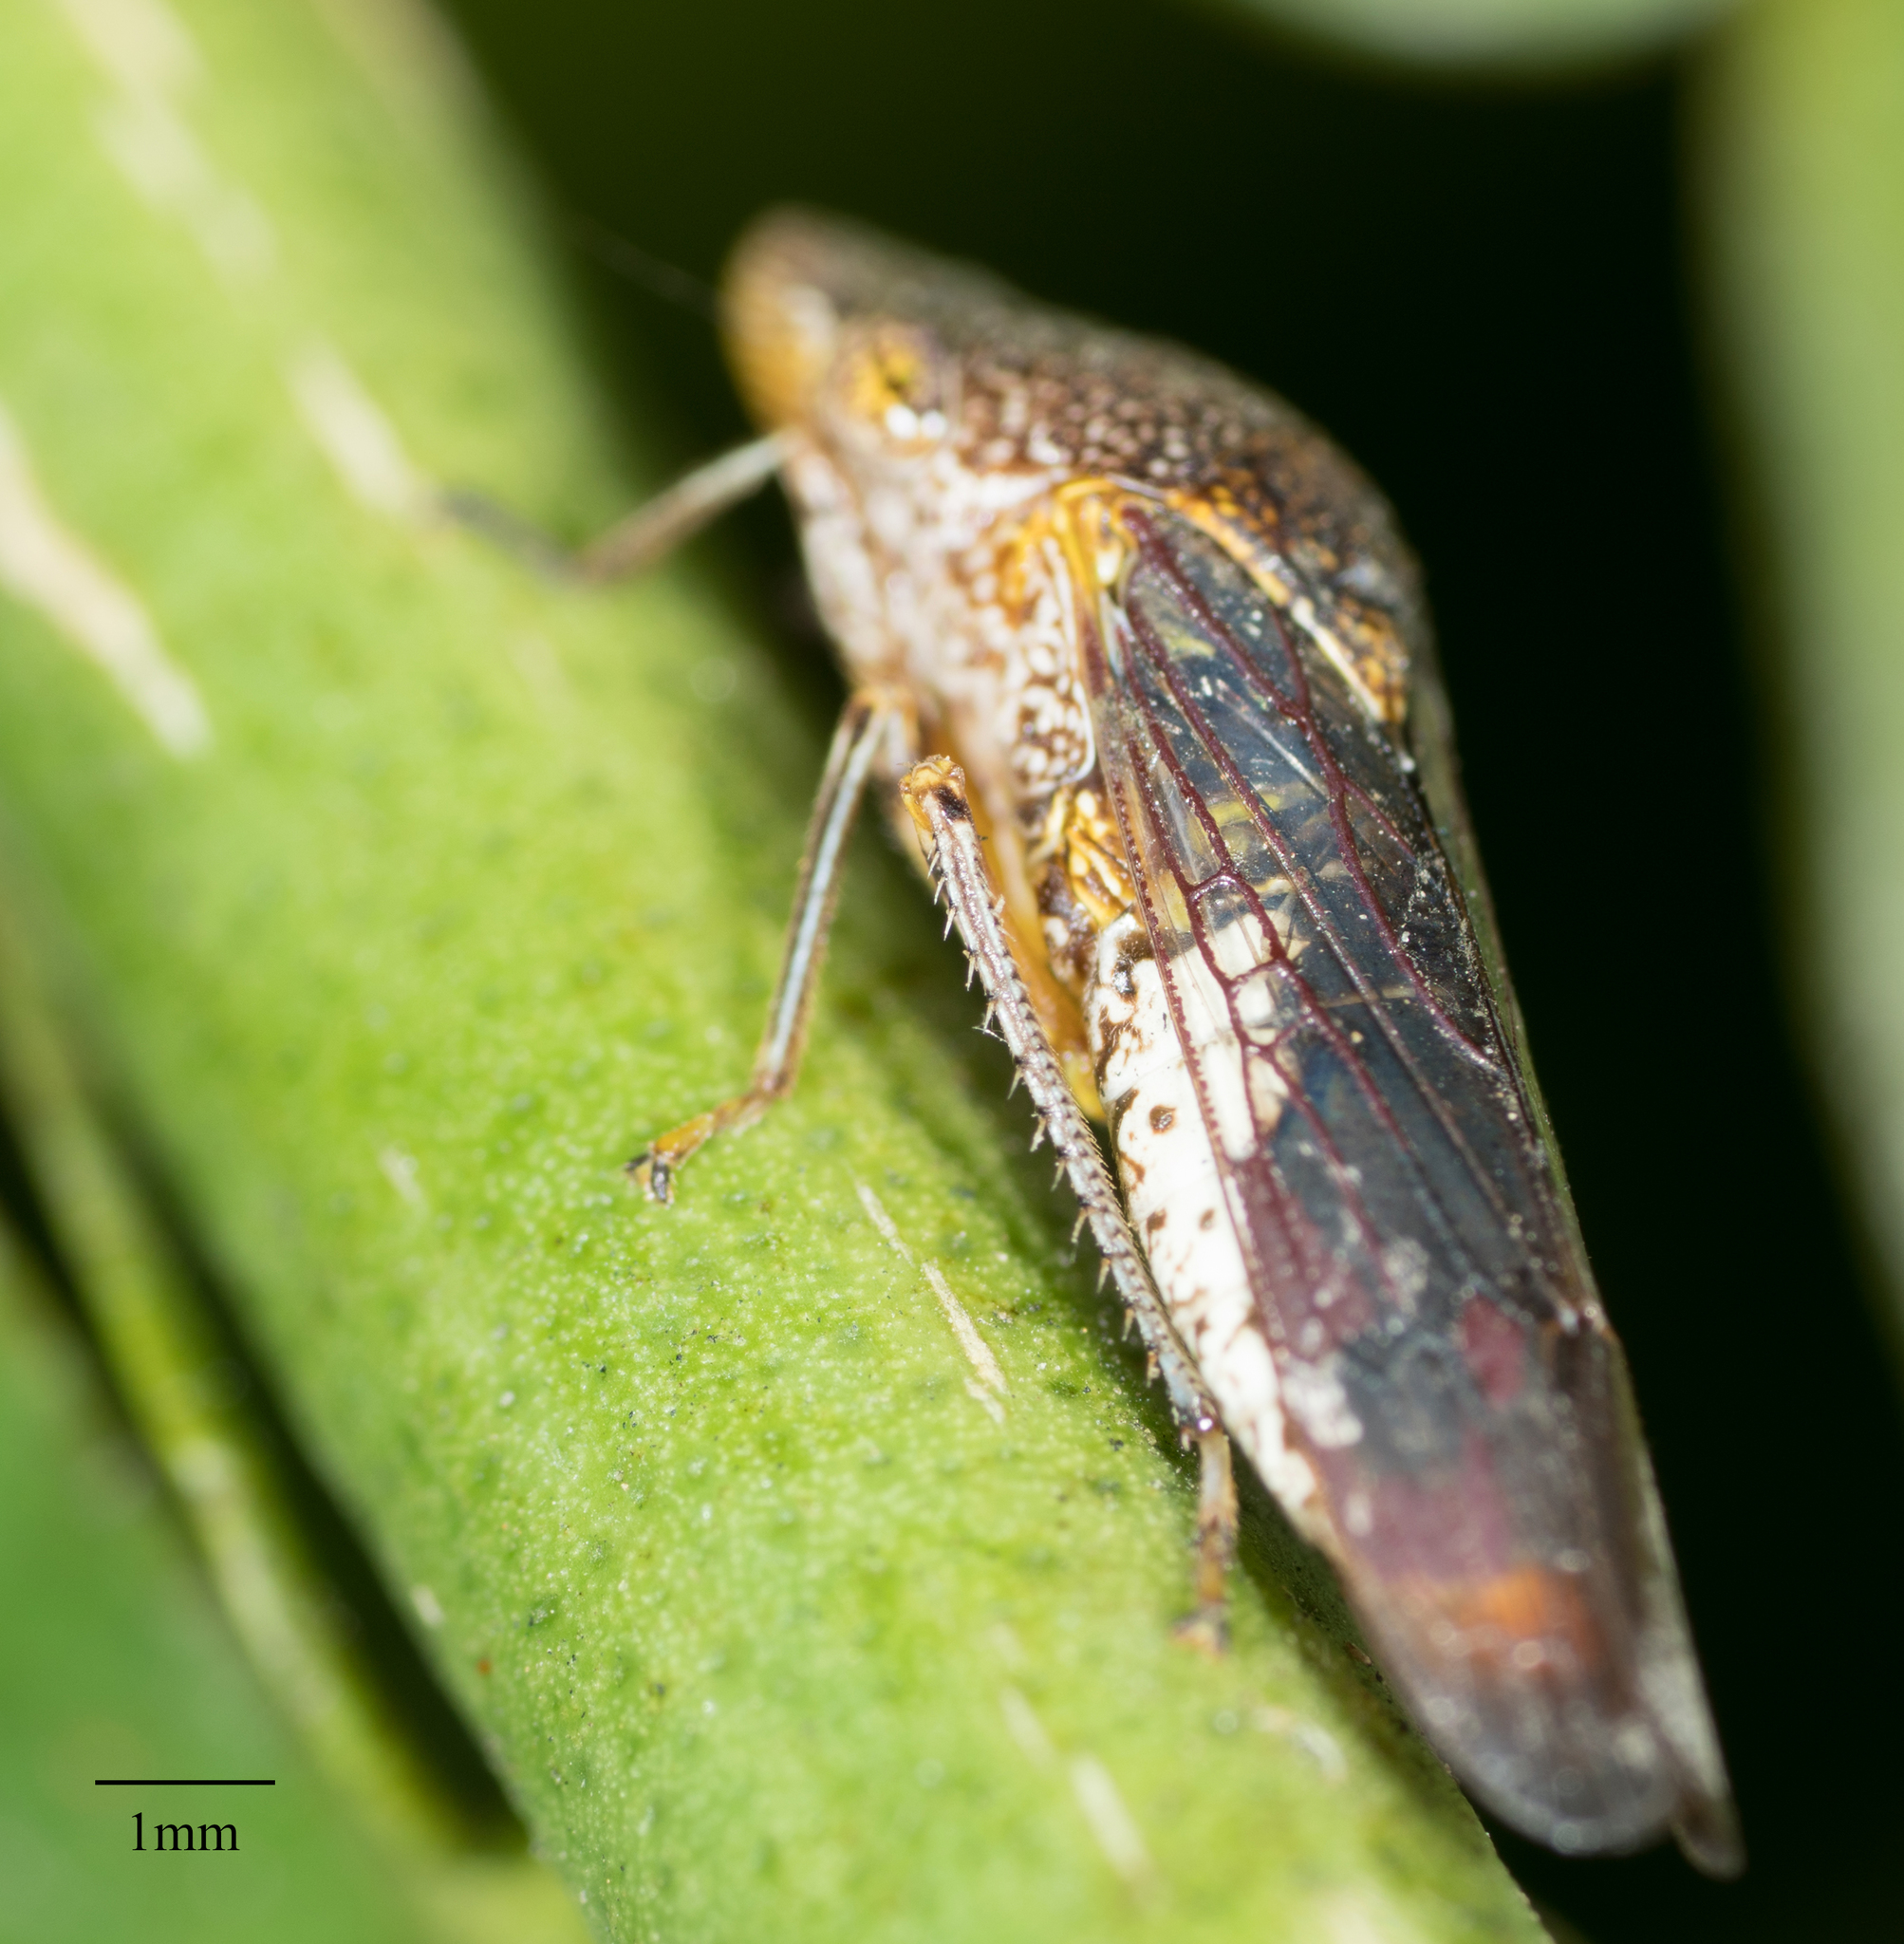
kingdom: Animalia
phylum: Arthropoda
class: Insecta
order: Hemiptera
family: Cicadellidae
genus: Homalodisca
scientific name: Homalodisca vitripennis
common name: Glassy-winged sharpshooter
